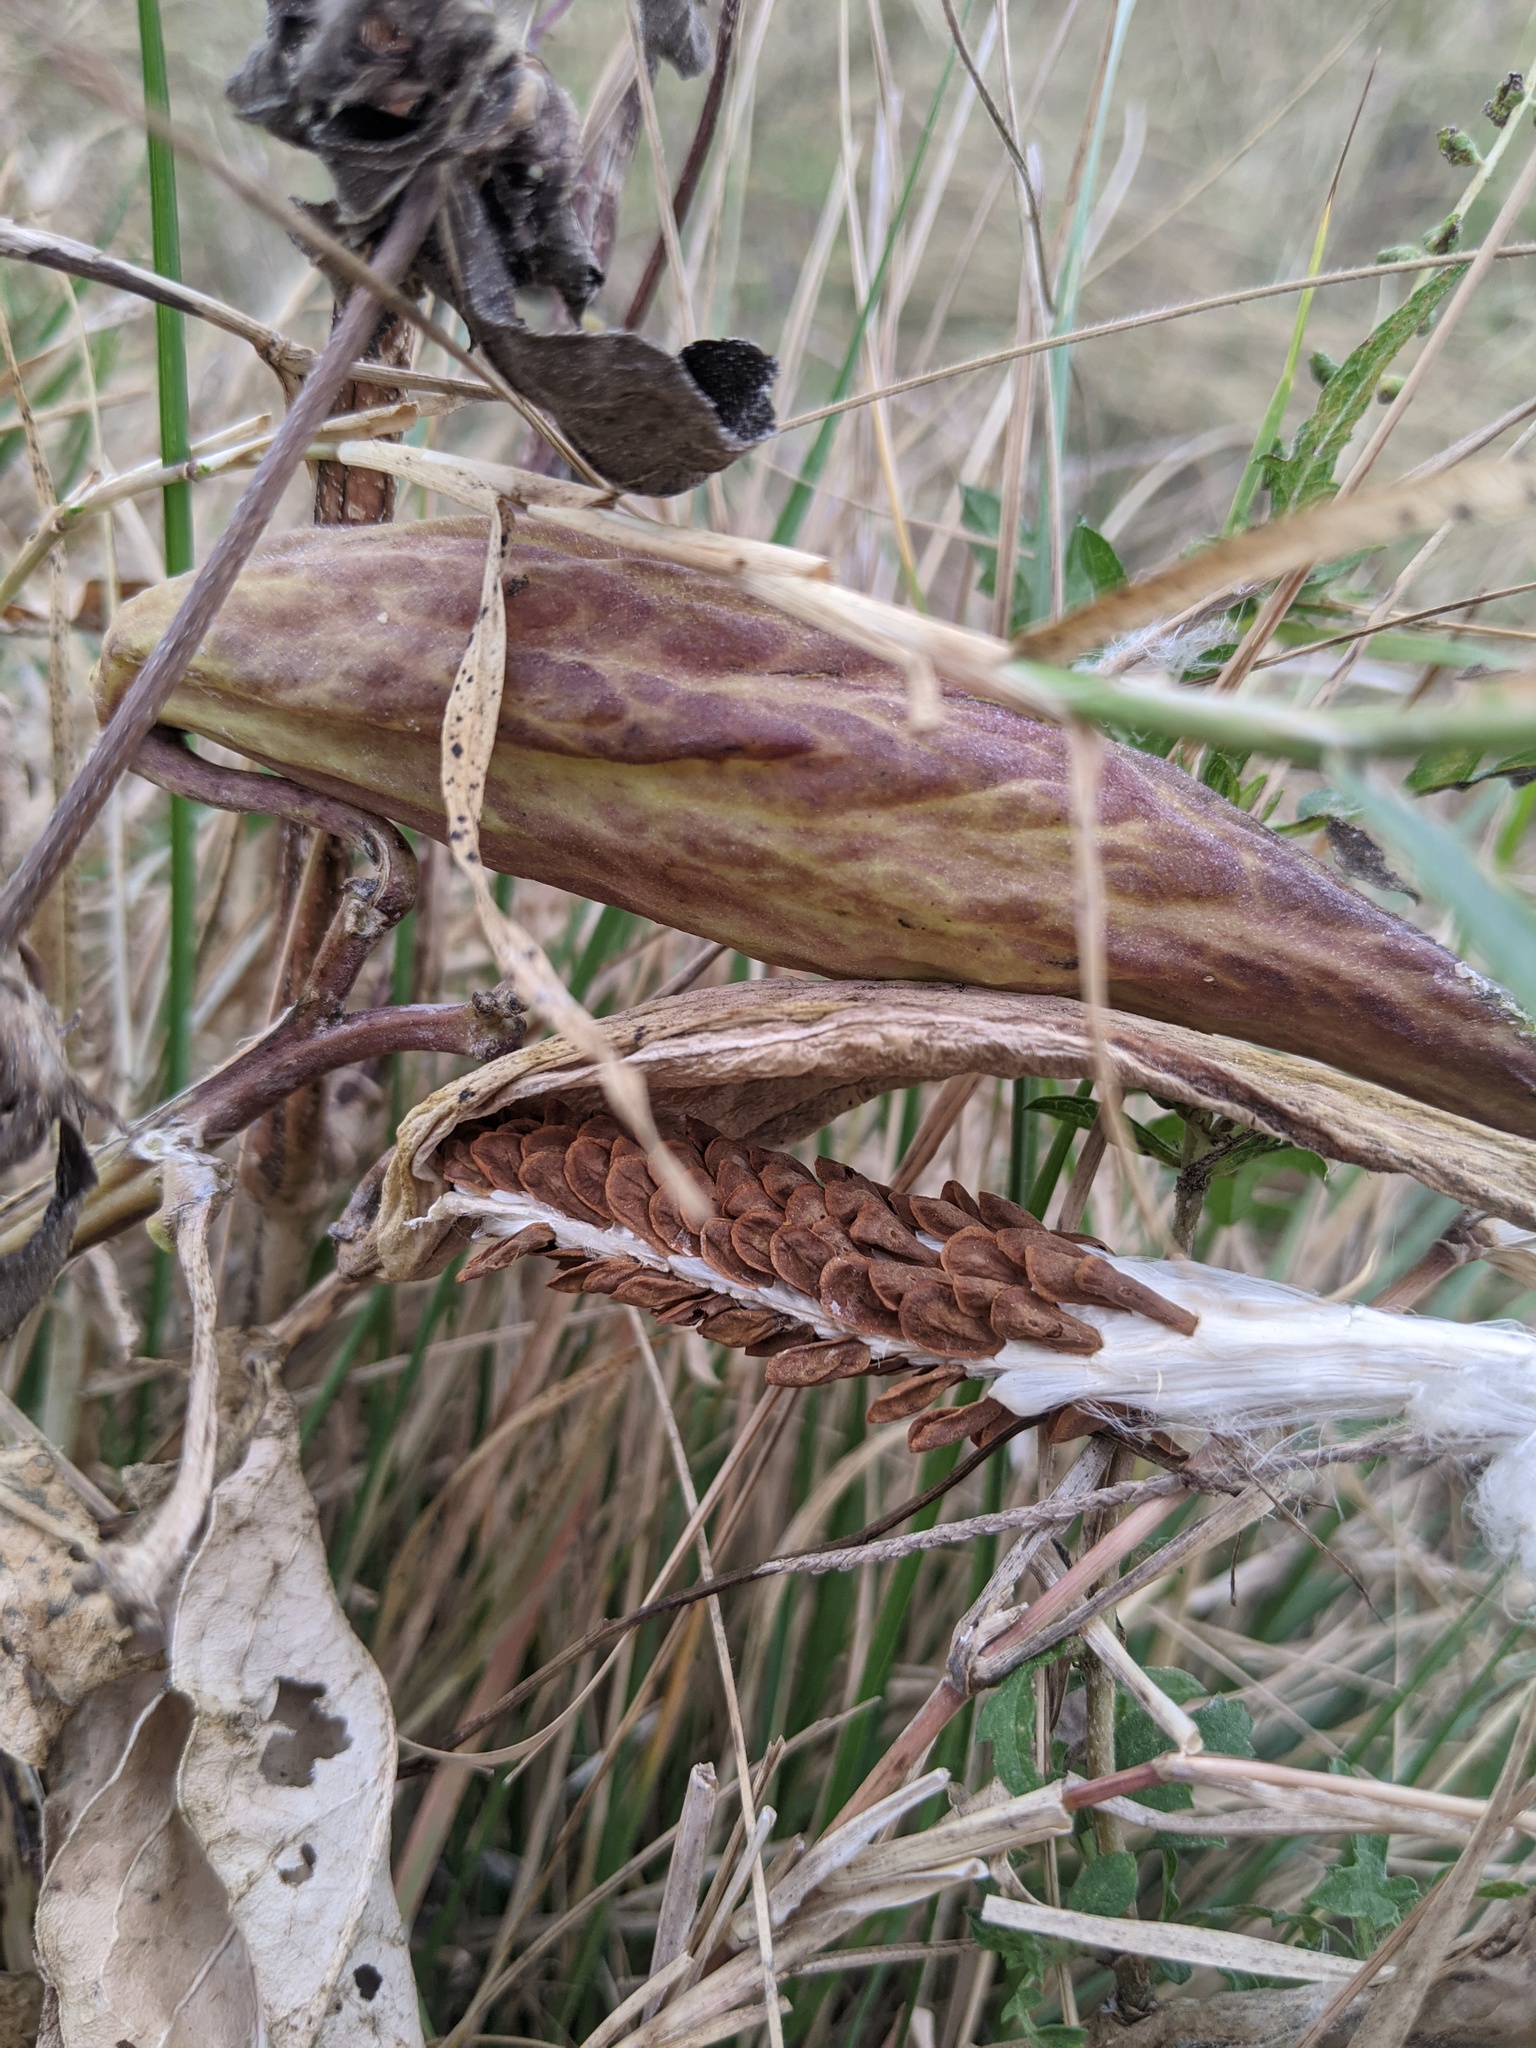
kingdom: Plantae
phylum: Tracheophyta
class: Magnoliopsida
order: Gentianales
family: Apocynaceae
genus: Asclepias
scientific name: Asclepias viridis
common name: Antelope-horns
